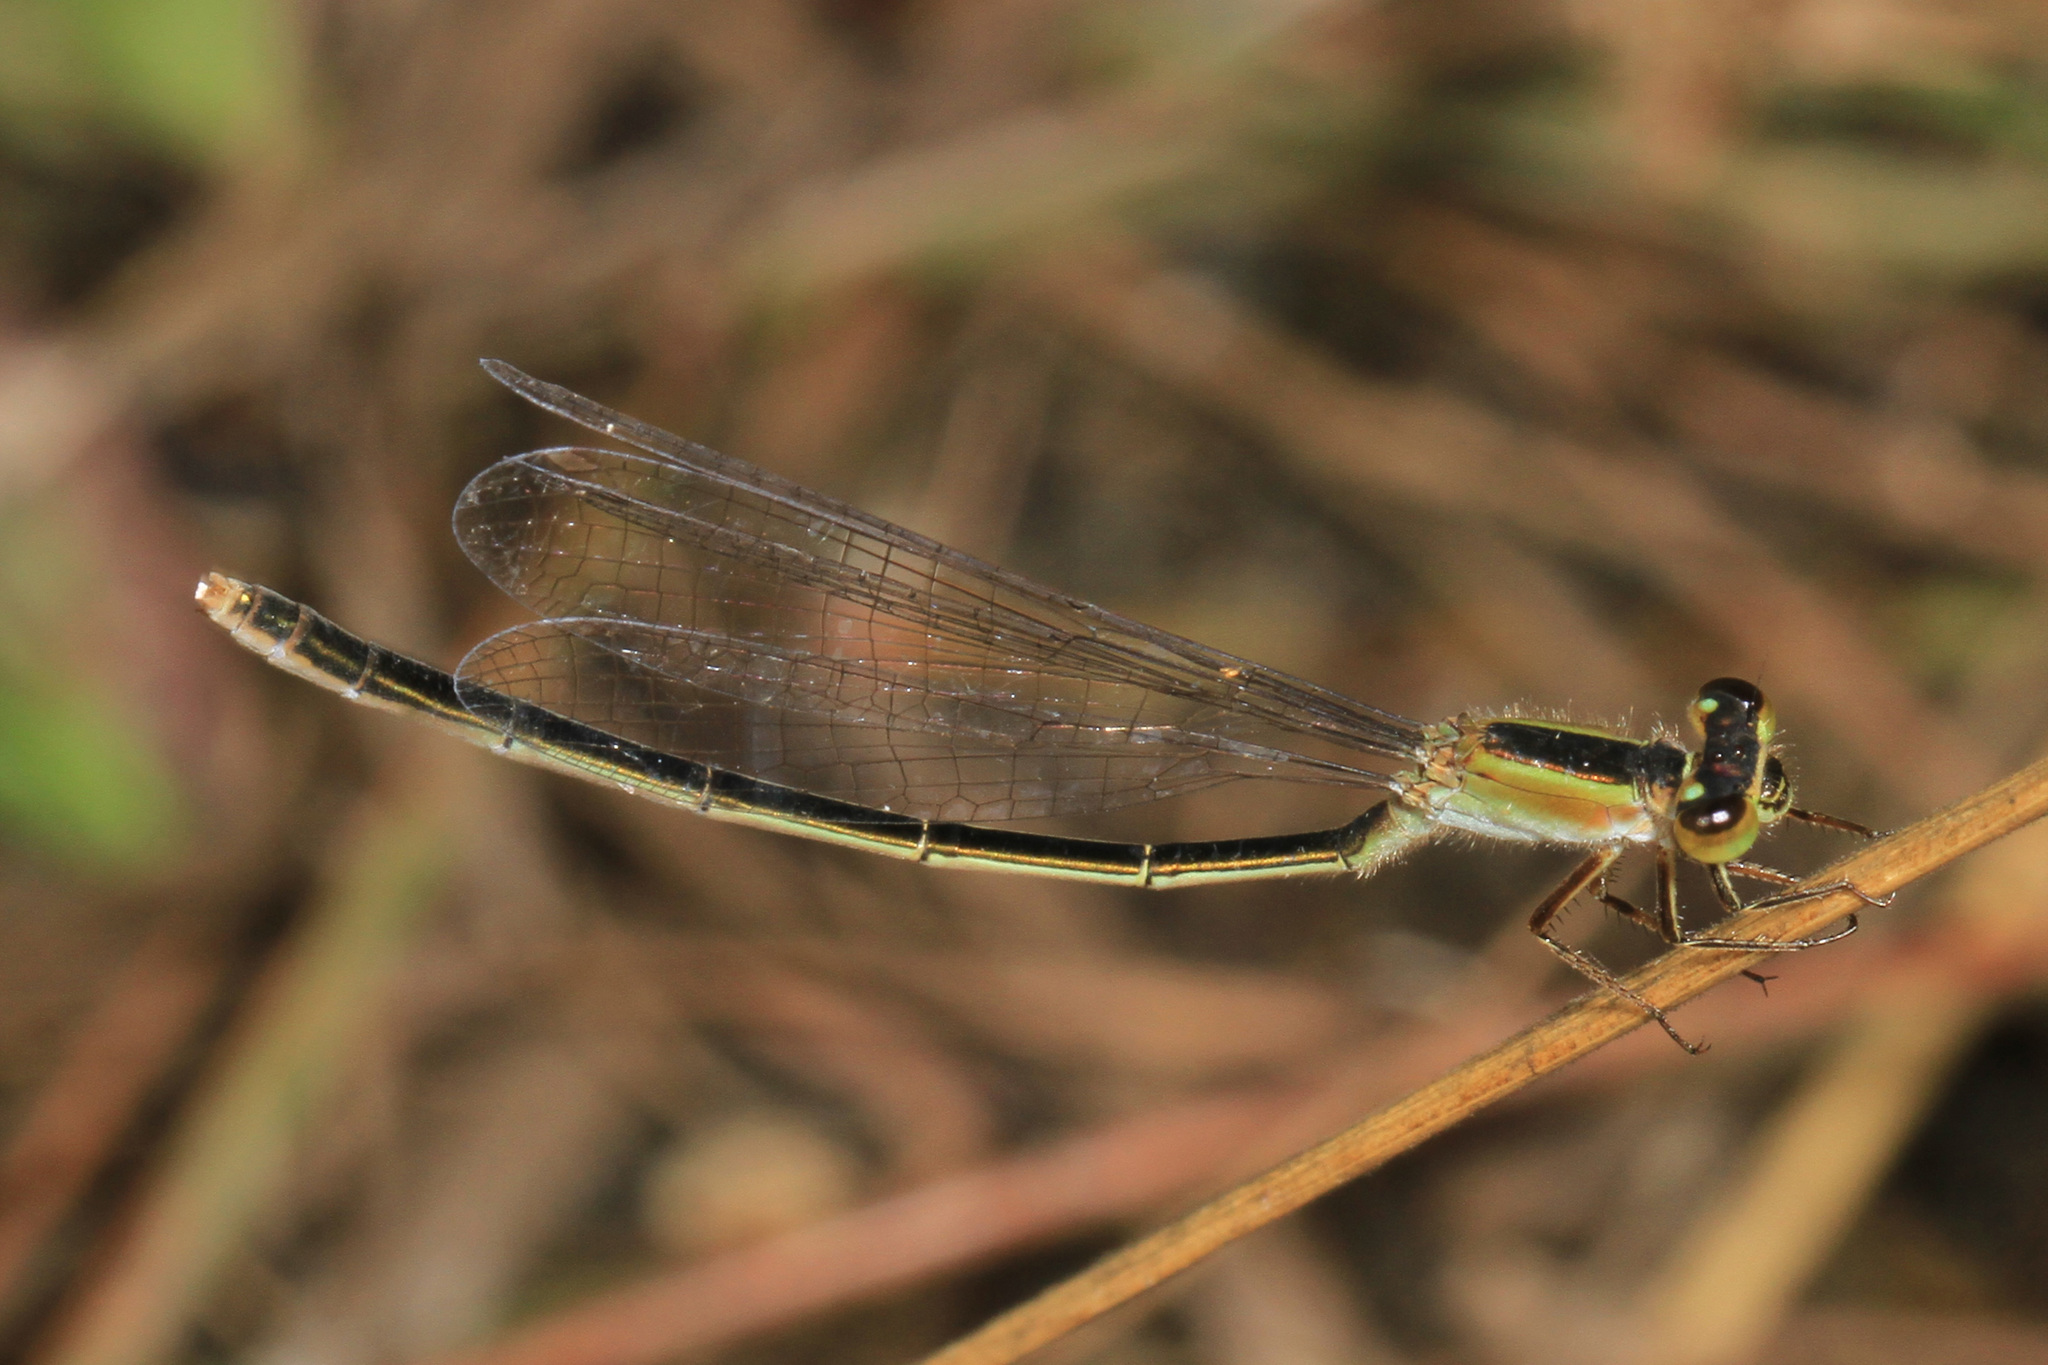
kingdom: Animalia
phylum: Arthropoda
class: Insecta
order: Odonata
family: Coenagrionidae
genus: Ischnura
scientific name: Ischnura ramburii
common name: Rambur's forktail
